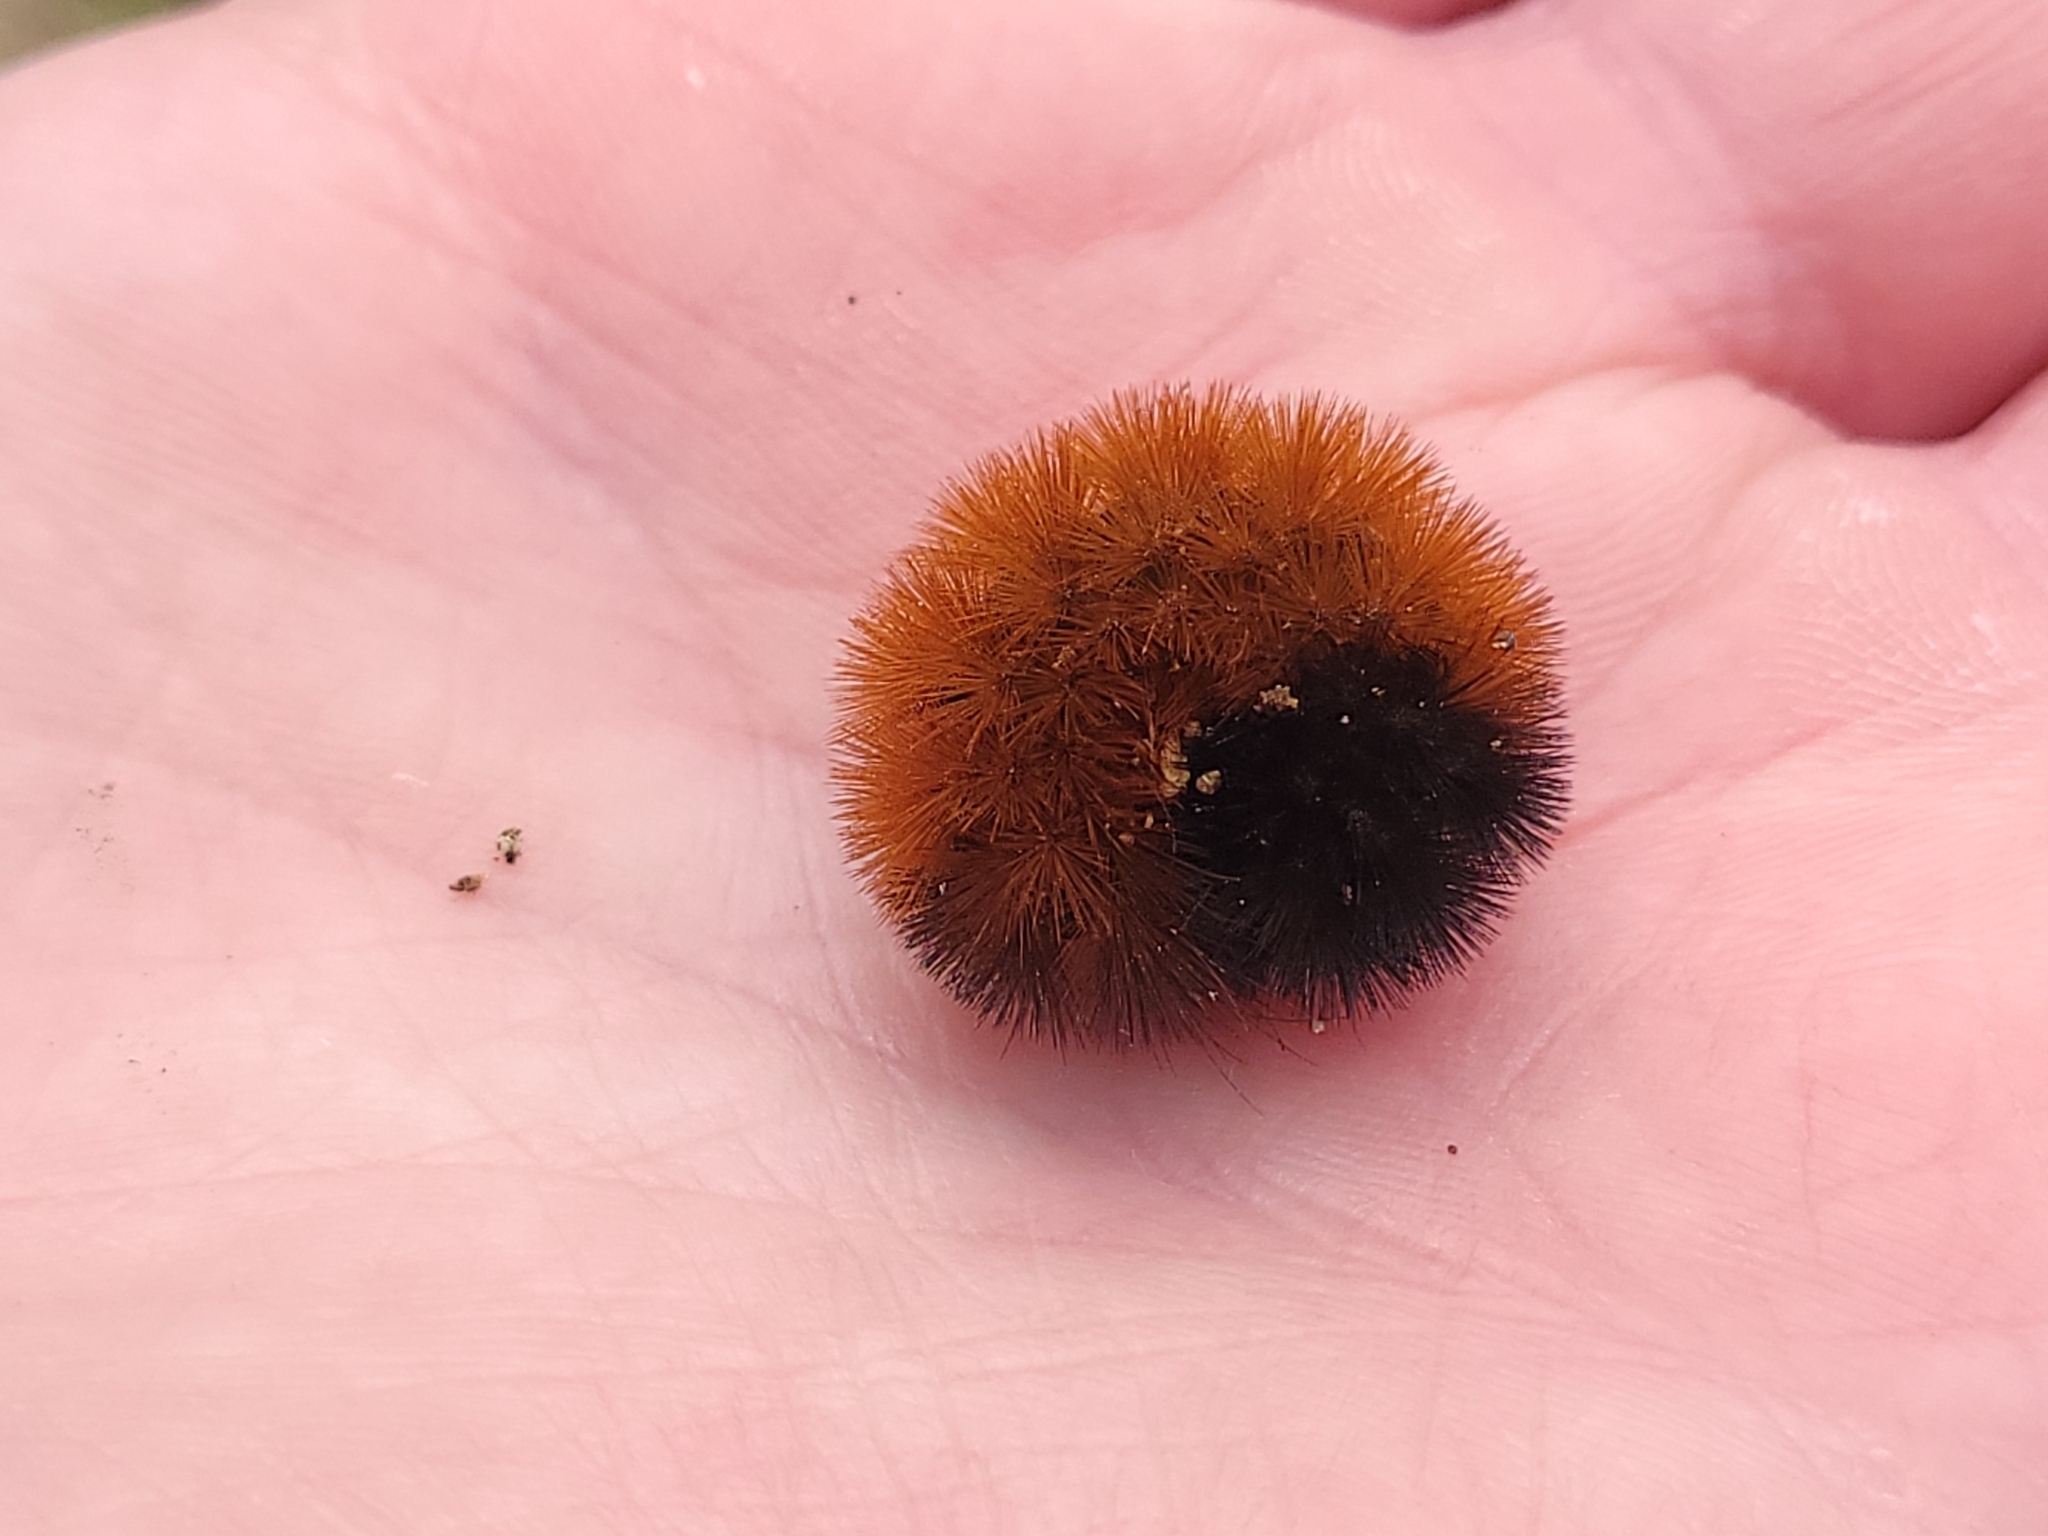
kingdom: Animalia
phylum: Arthropoda
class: Insecta
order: Lepidoptera
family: Erebidae
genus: Pyrrharctia
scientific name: Pyrrharctia isabella
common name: Isabella tiger moth
